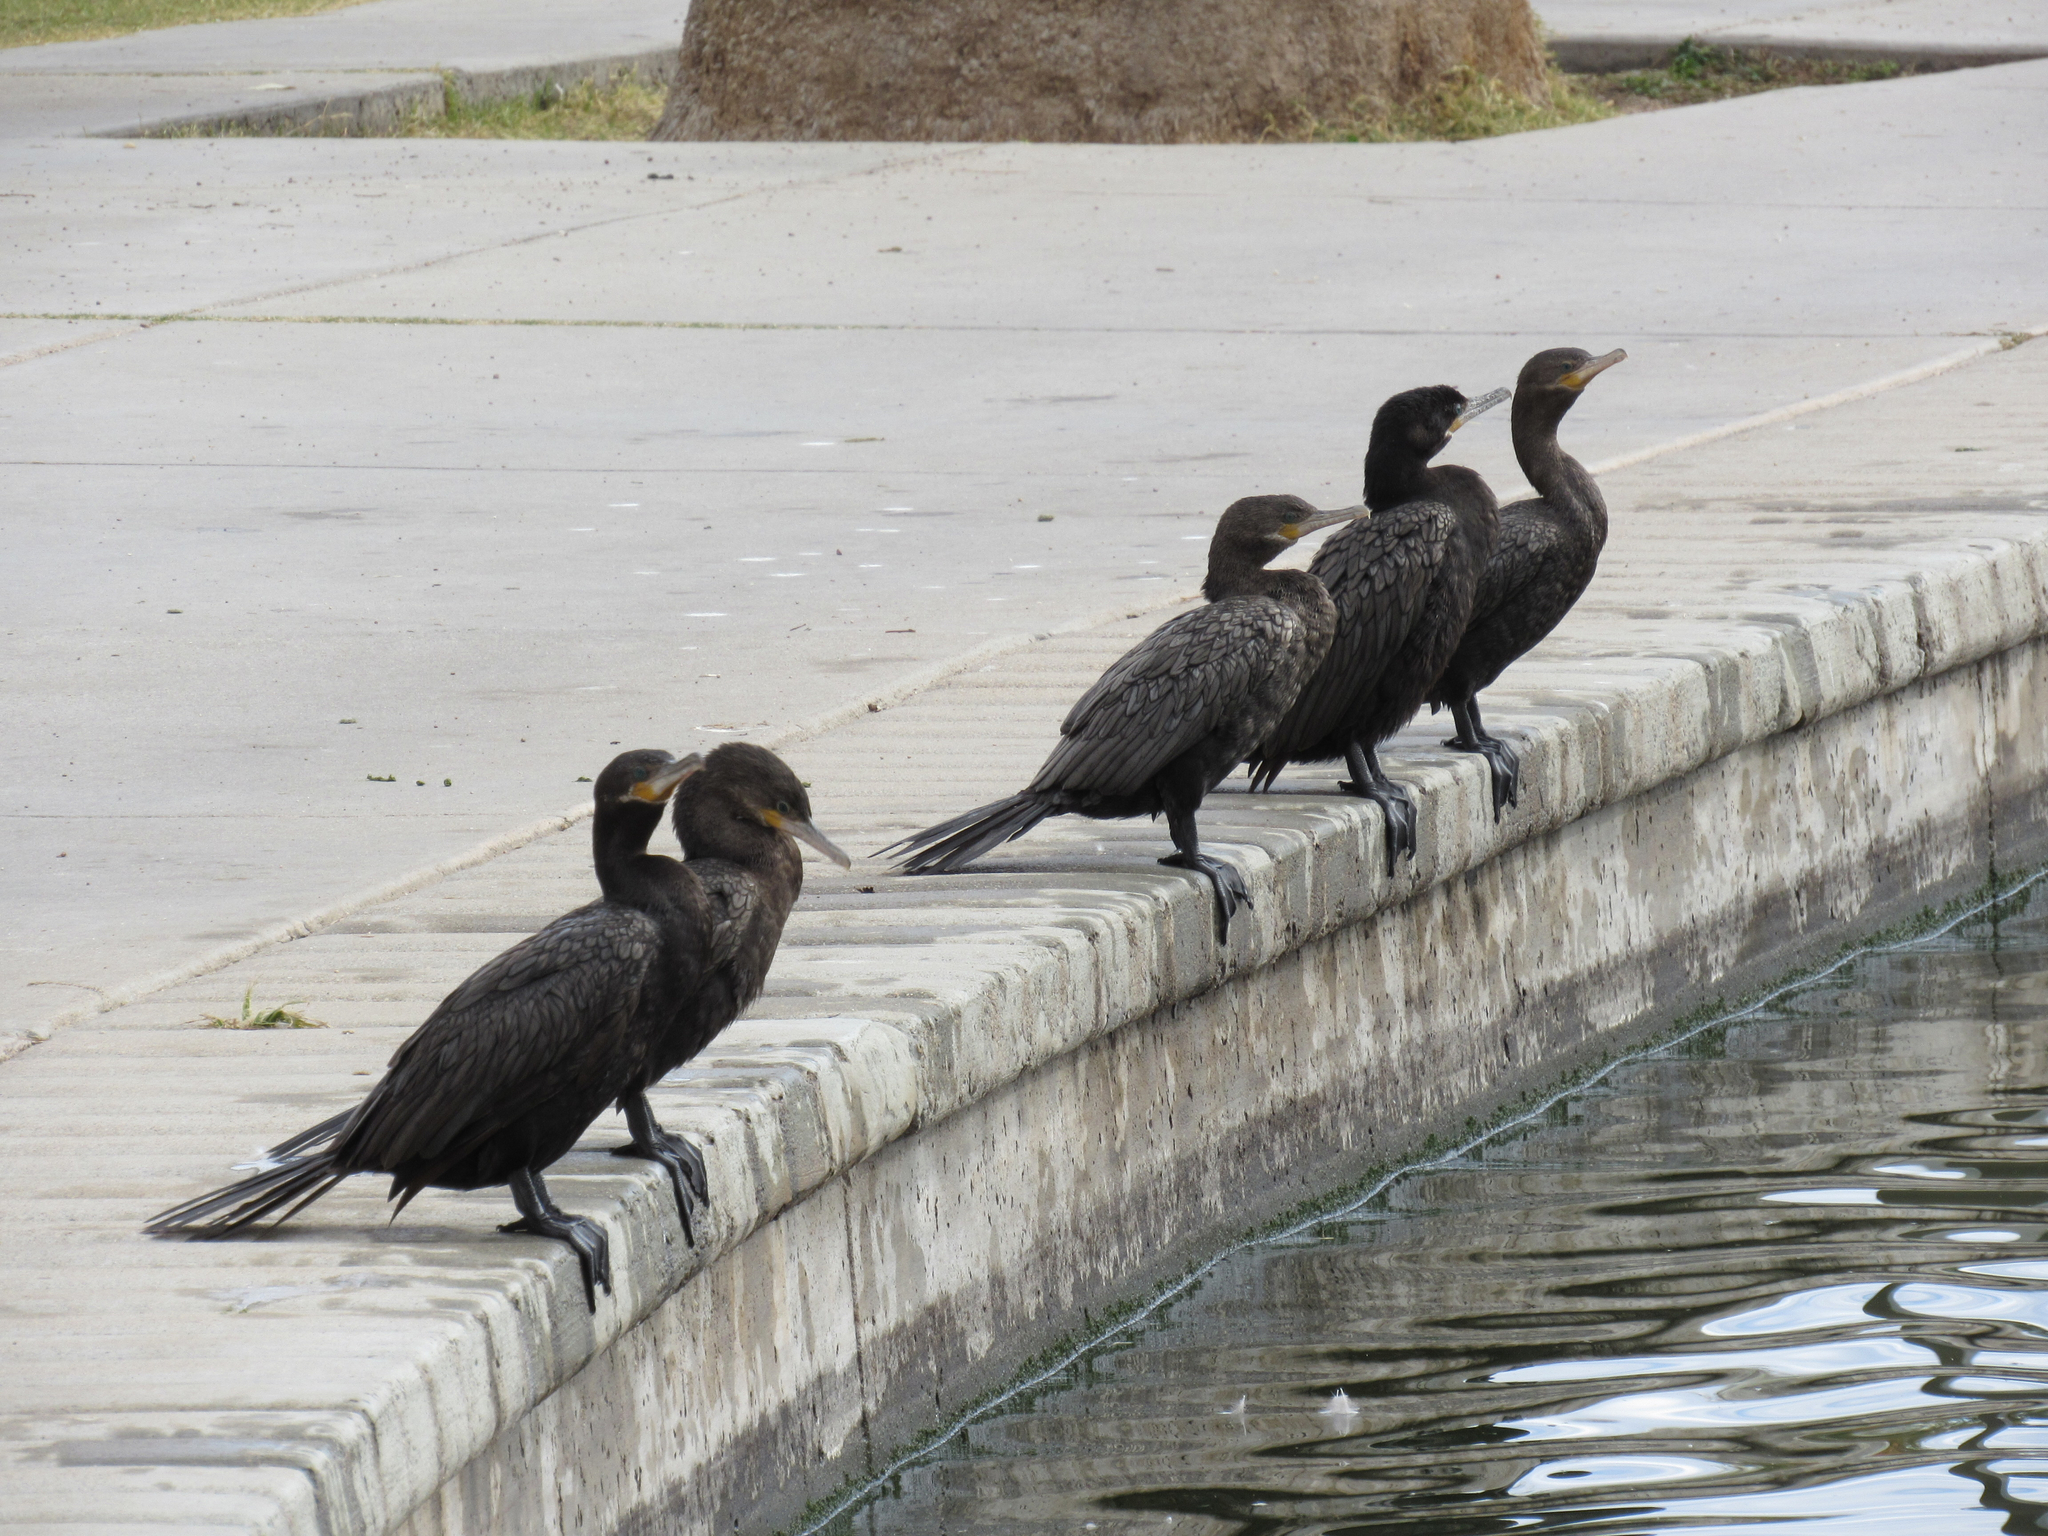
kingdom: Animalia
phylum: Chordata
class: Aves
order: Suliformes
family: Phalacrocoracidae
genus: Phalacrocorax
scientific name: Phalacrocorax brasilianus
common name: Neotropic cormorant
